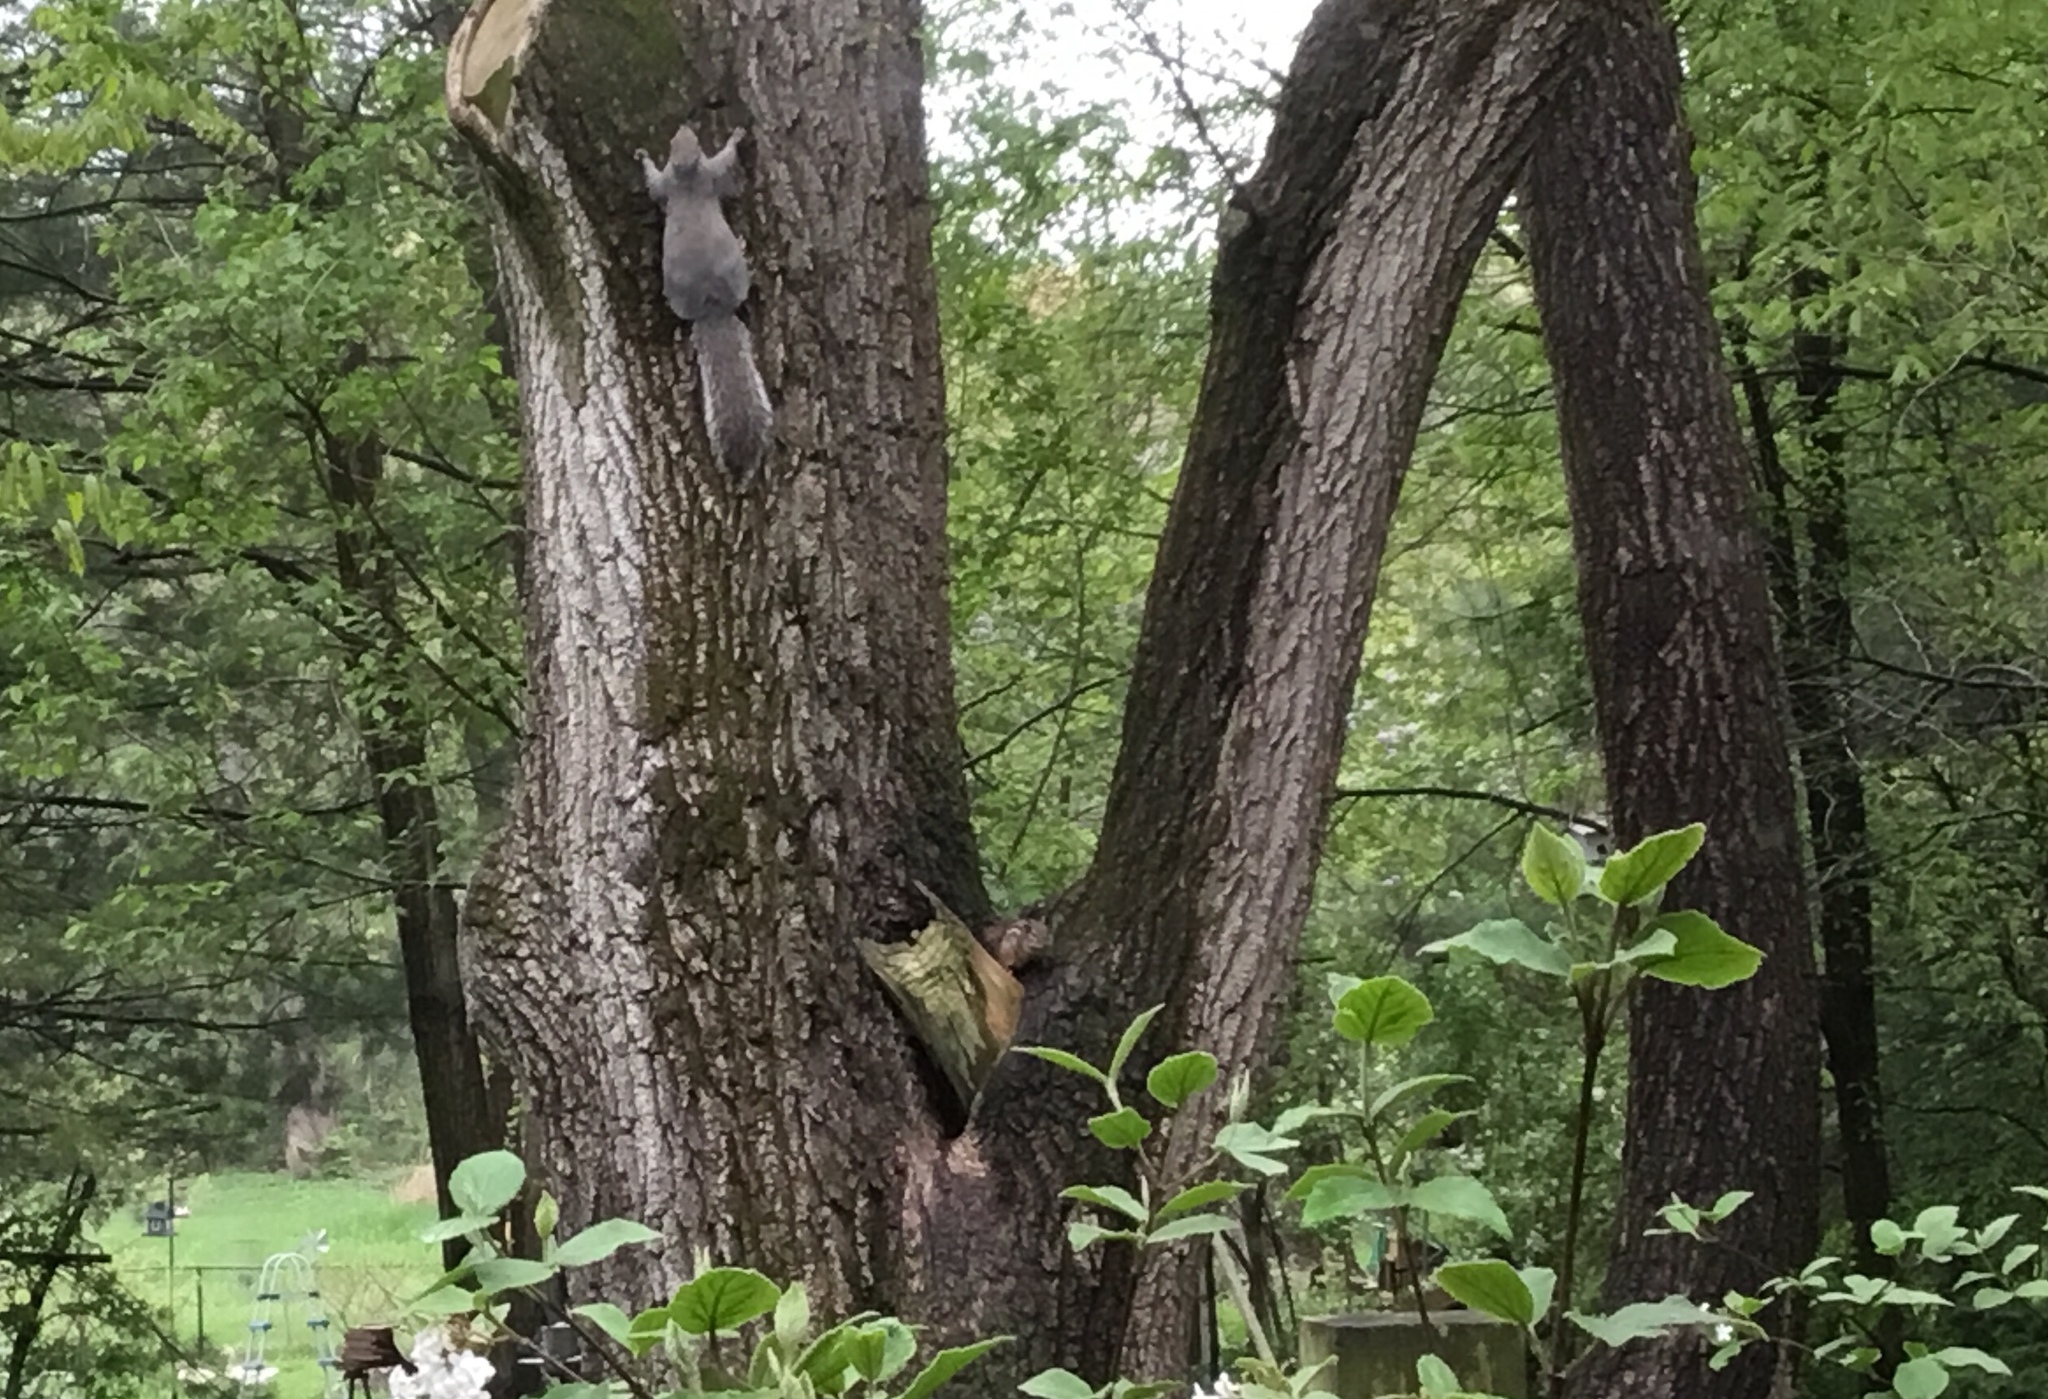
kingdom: Animalia
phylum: Chordata
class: Mammalia
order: Rodentia
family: Sciuridae
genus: Sciurus
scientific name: Sciurus carolinensis
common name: Eastern gray squirrel
